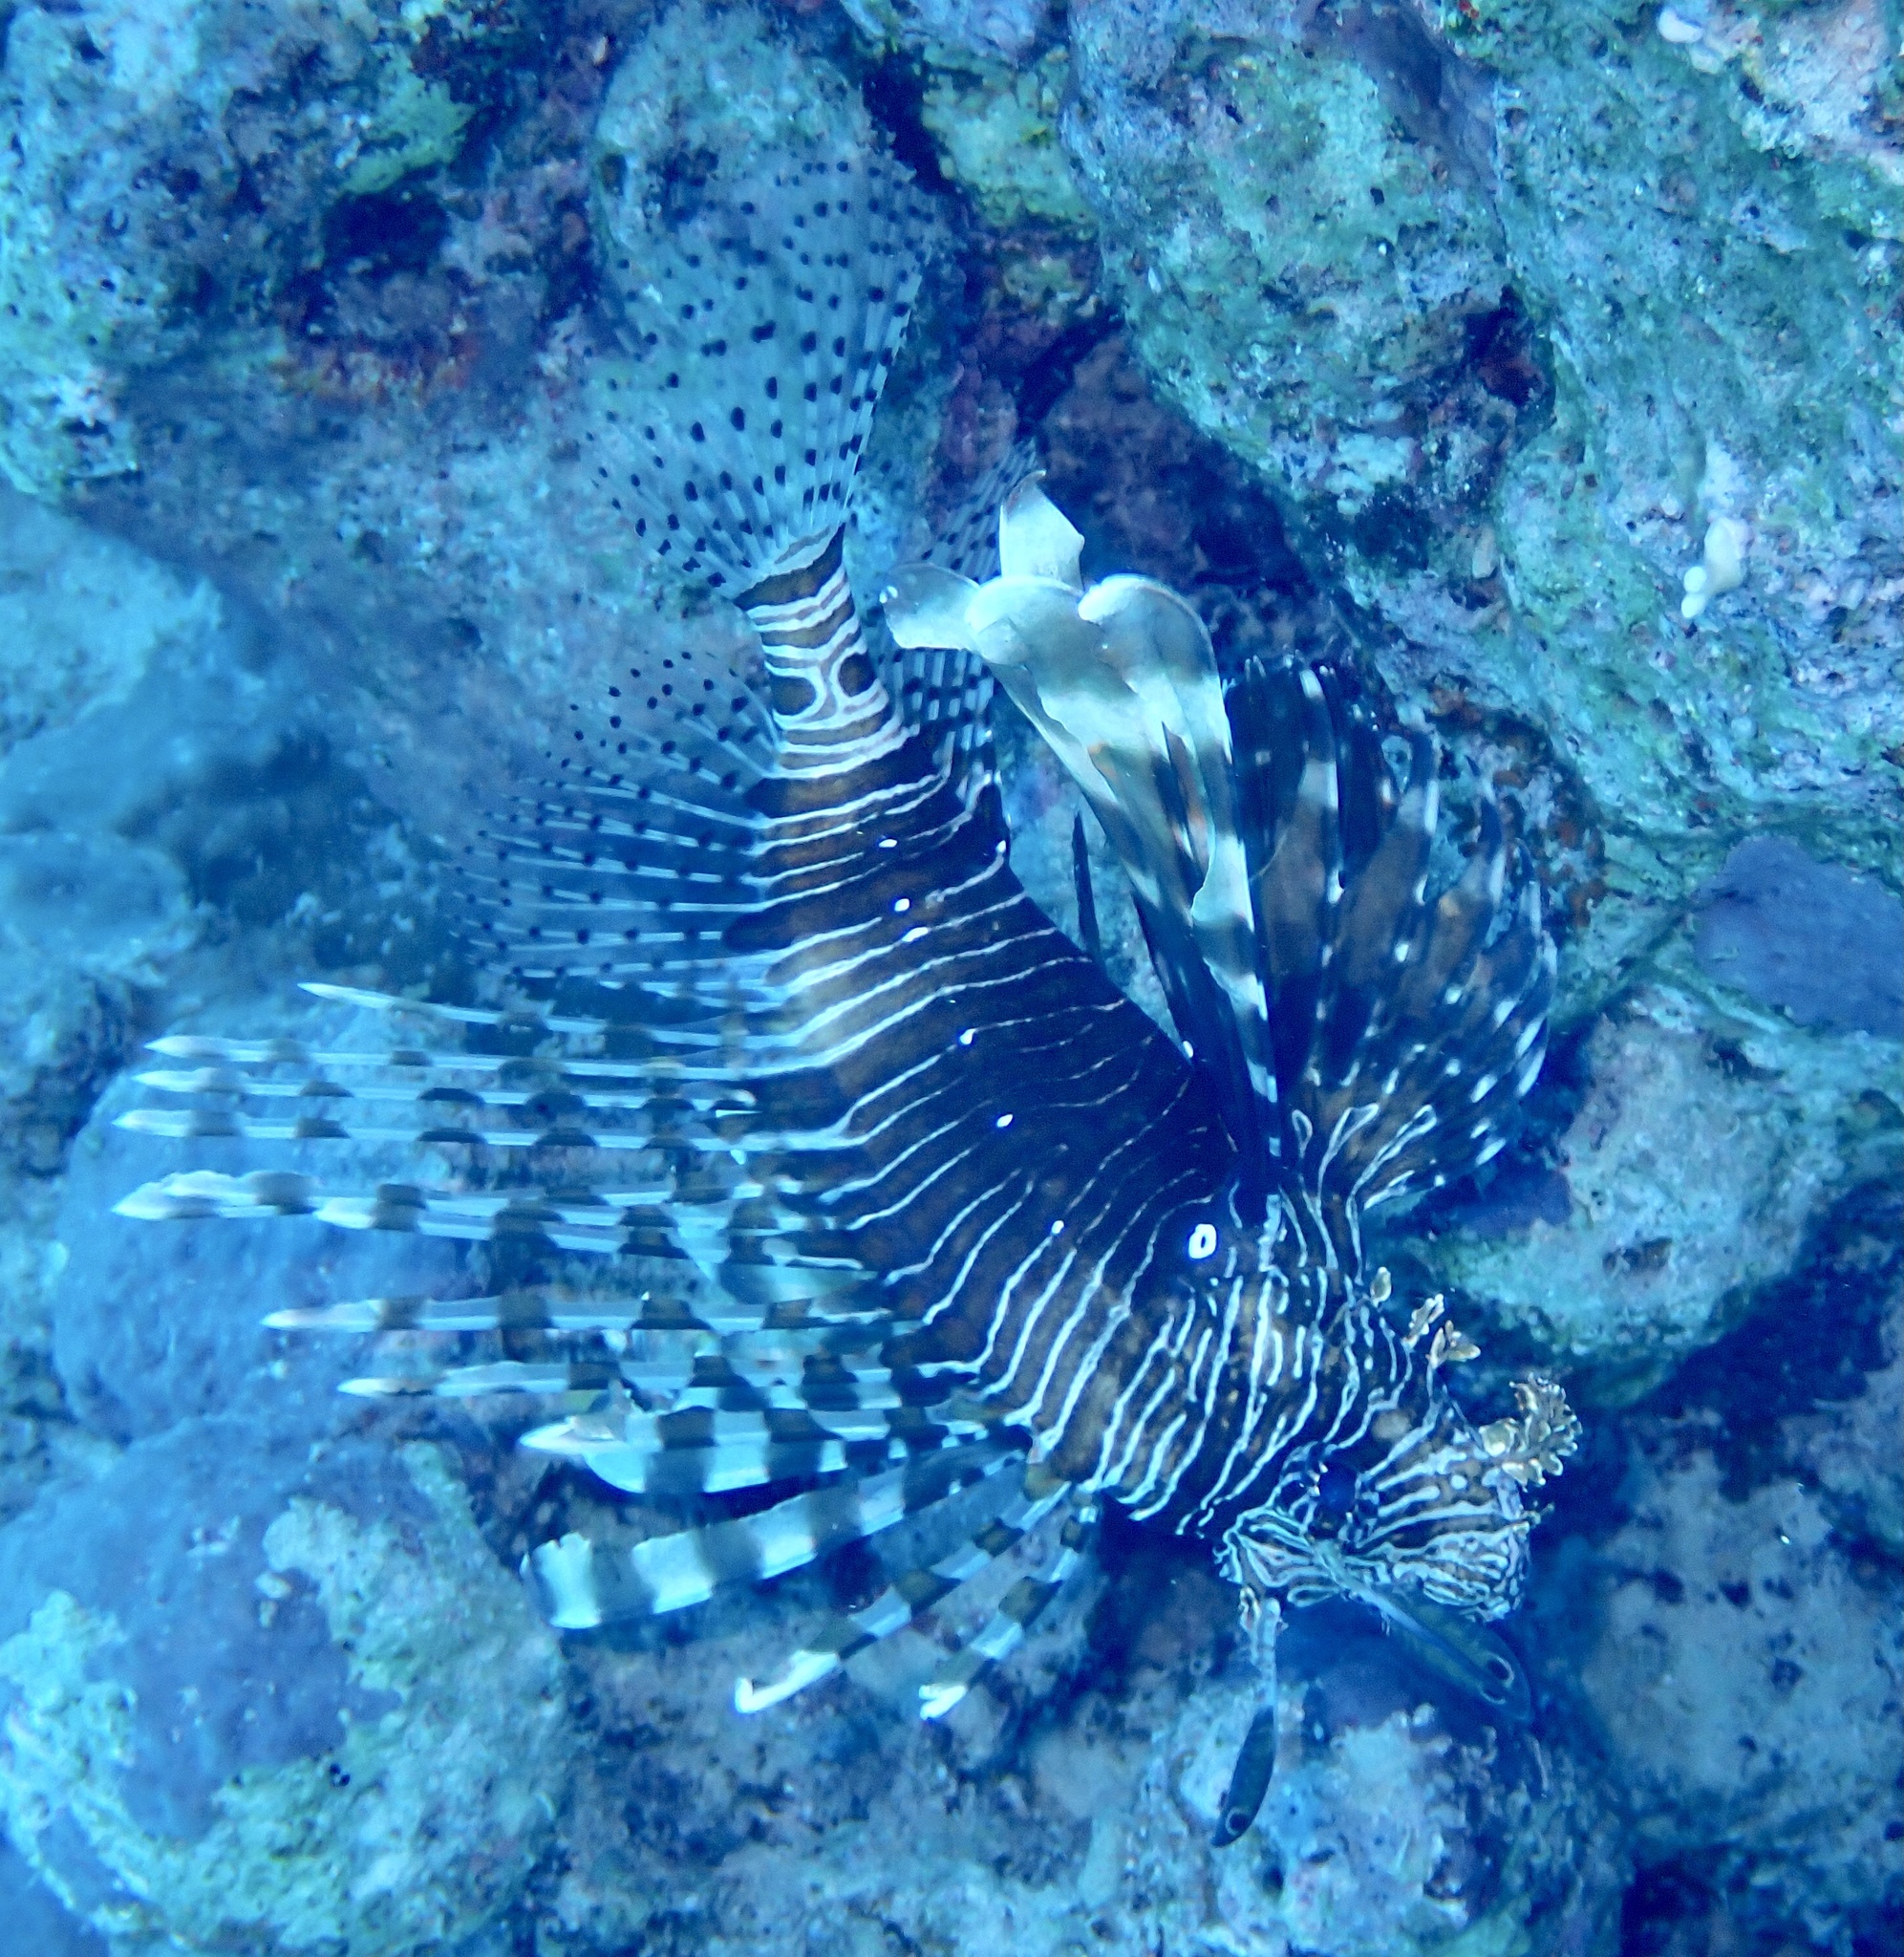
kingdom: Animalia
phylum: Chordata
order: Scorpaeniformes
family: Scorpaenidae
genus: Pterois
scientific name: Pterois miles
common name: Devil firefish
